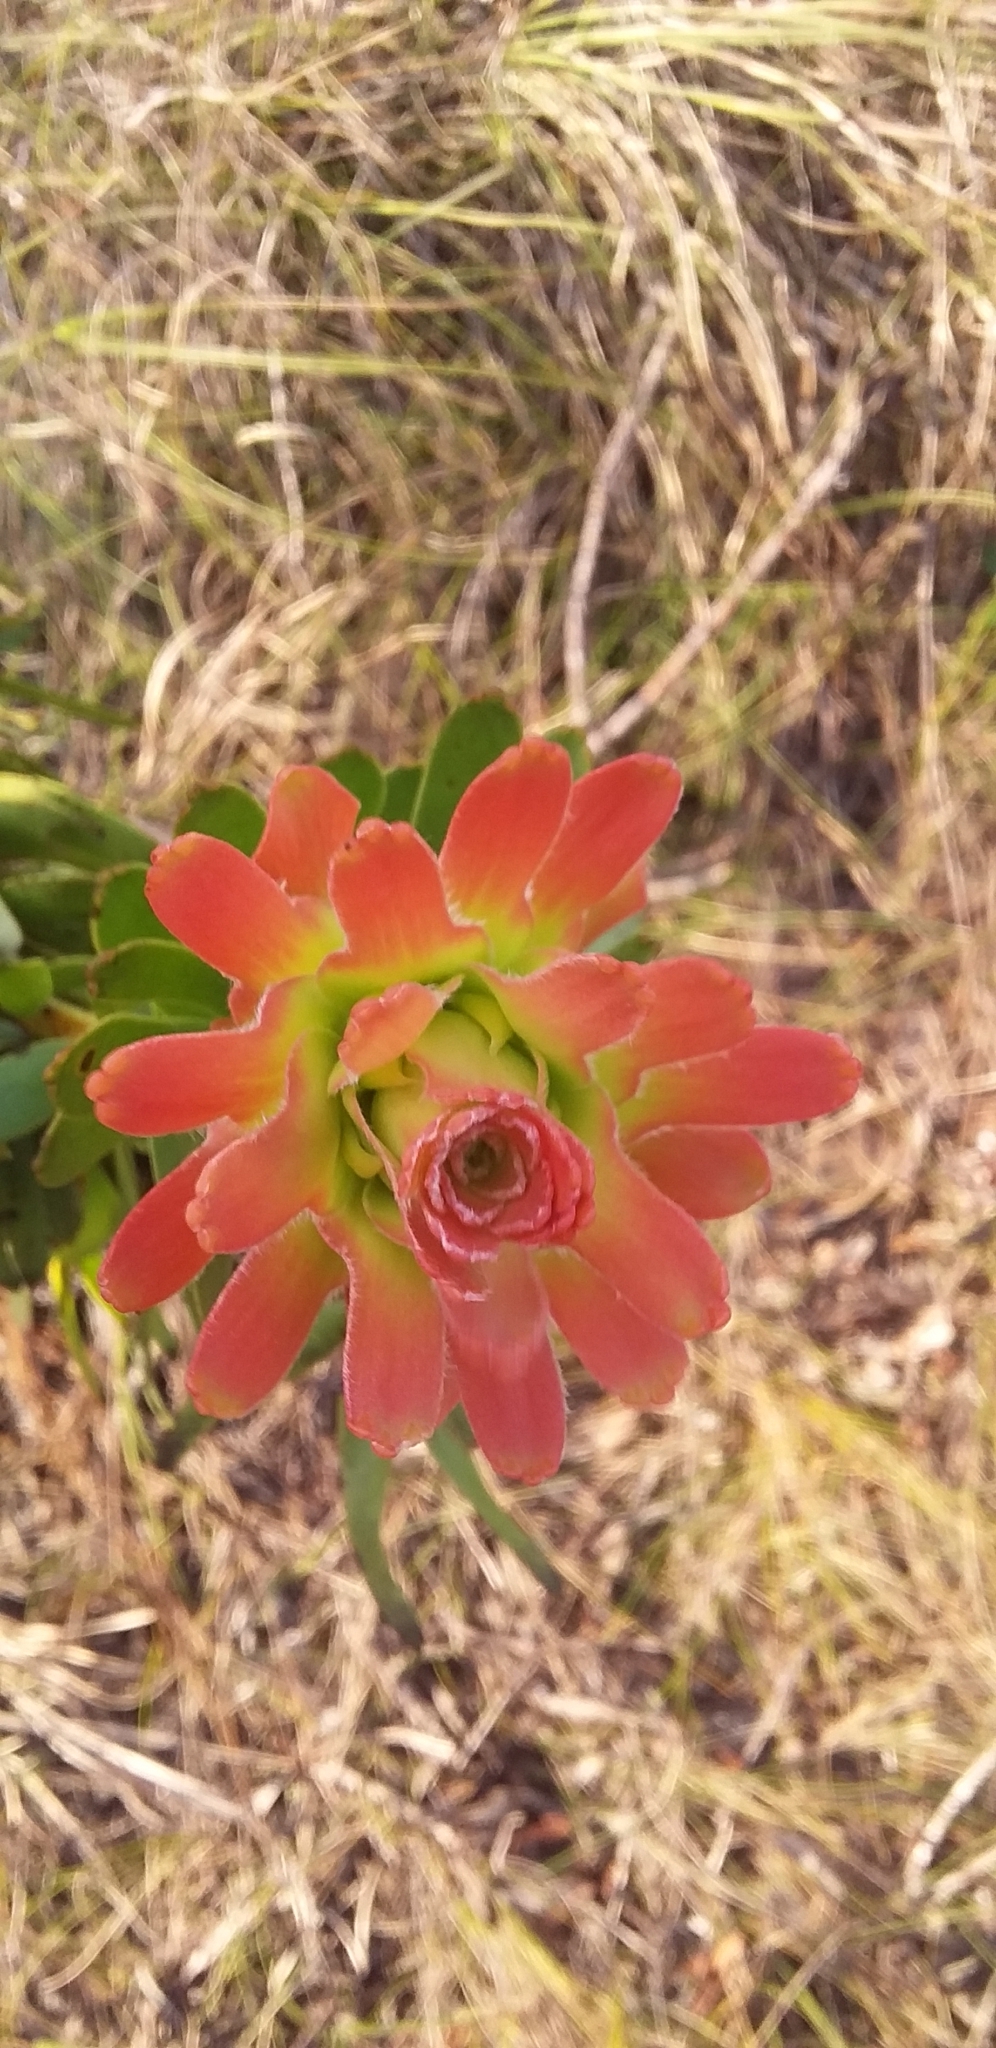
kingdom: Plantae
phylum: Tracheophyta
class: Magnoliopsida
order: Proteales
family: Proteaceae
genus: Mimetes
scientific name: Mimetes cucullatus
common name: Common pagoda
